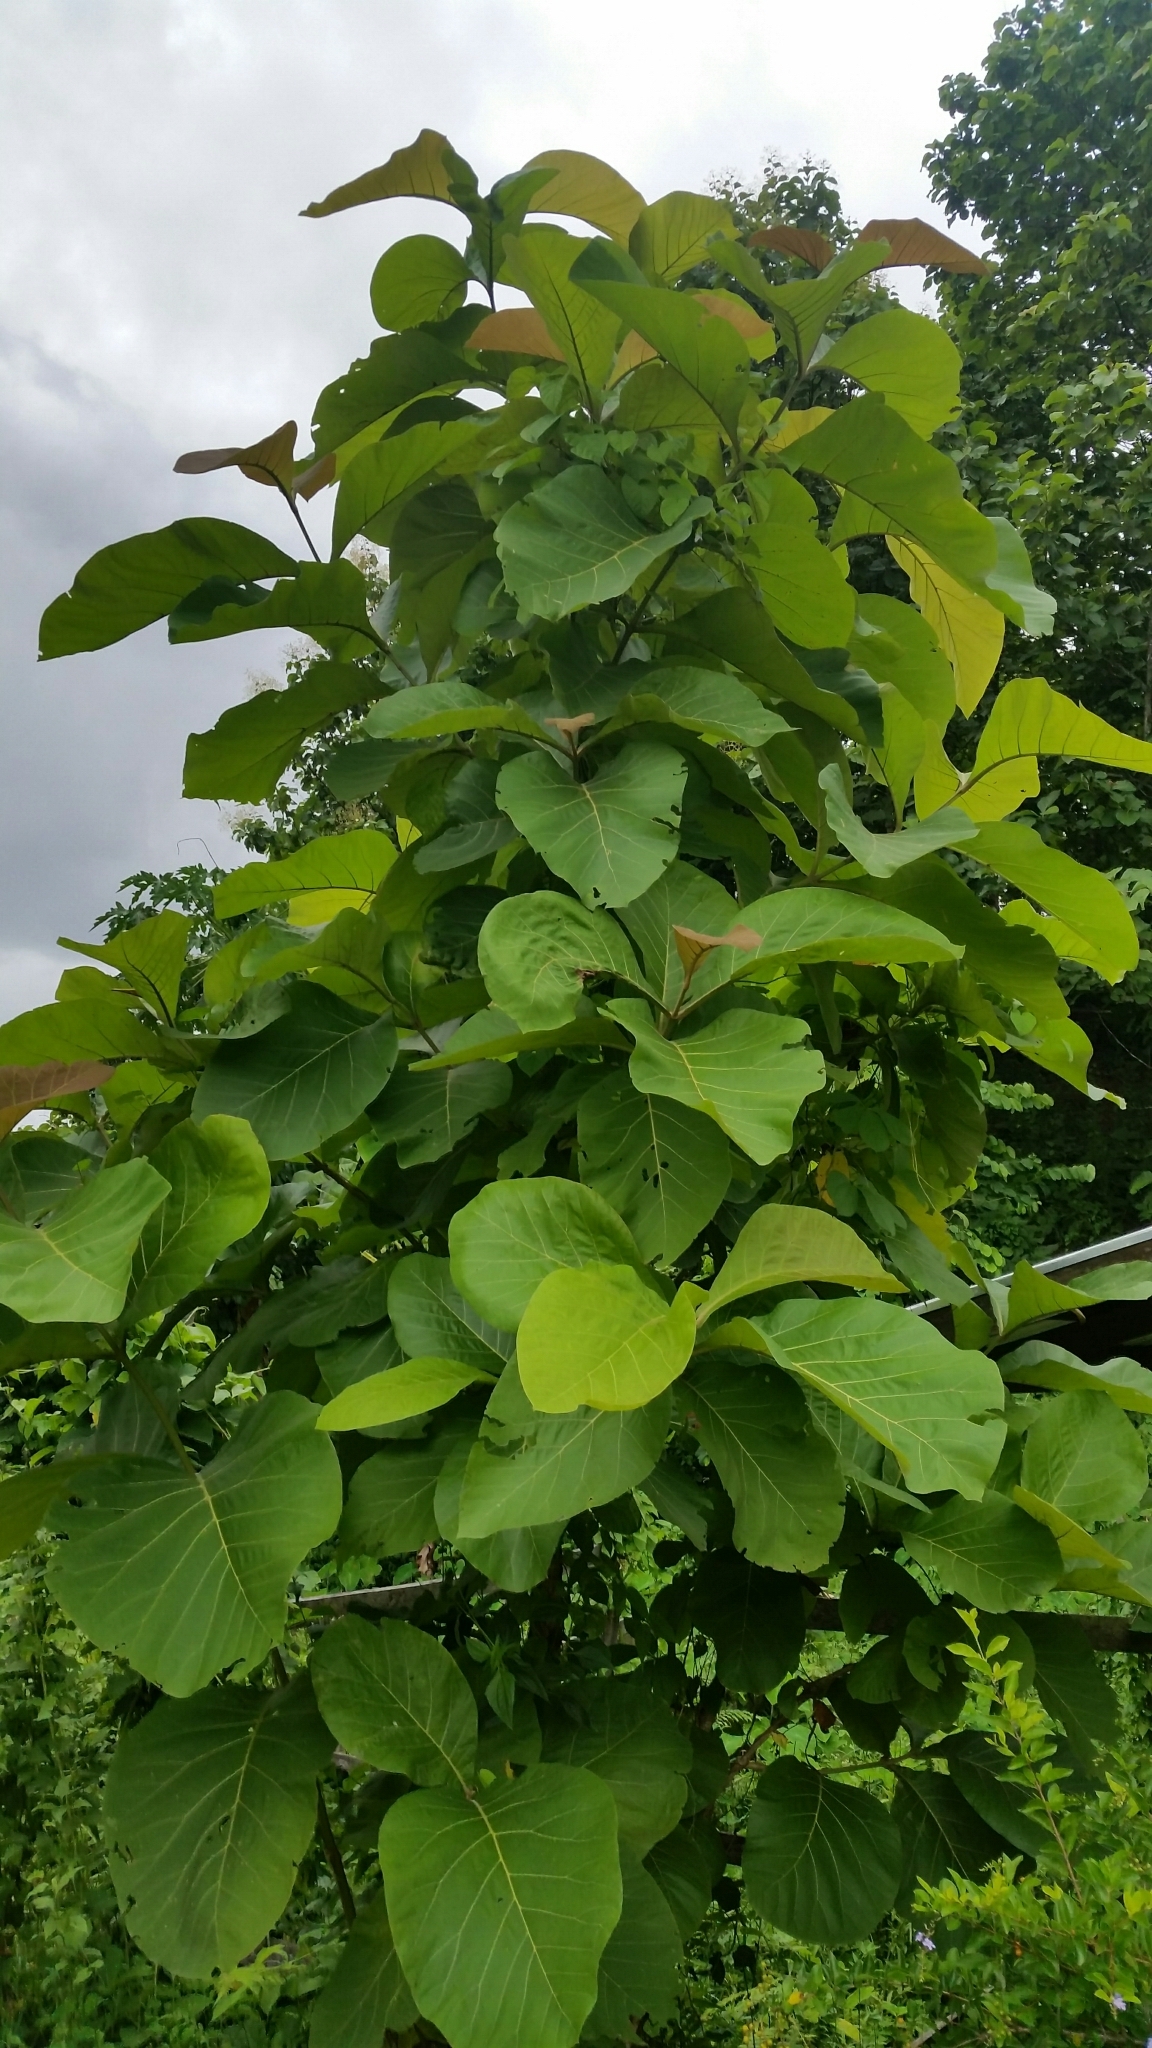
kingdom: Plantae
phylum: Tracheophyta
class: Magnoliopsida
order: Lamiales
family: Lamiaceae
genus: Tectona
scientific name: Tectona grandis
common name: Teak
